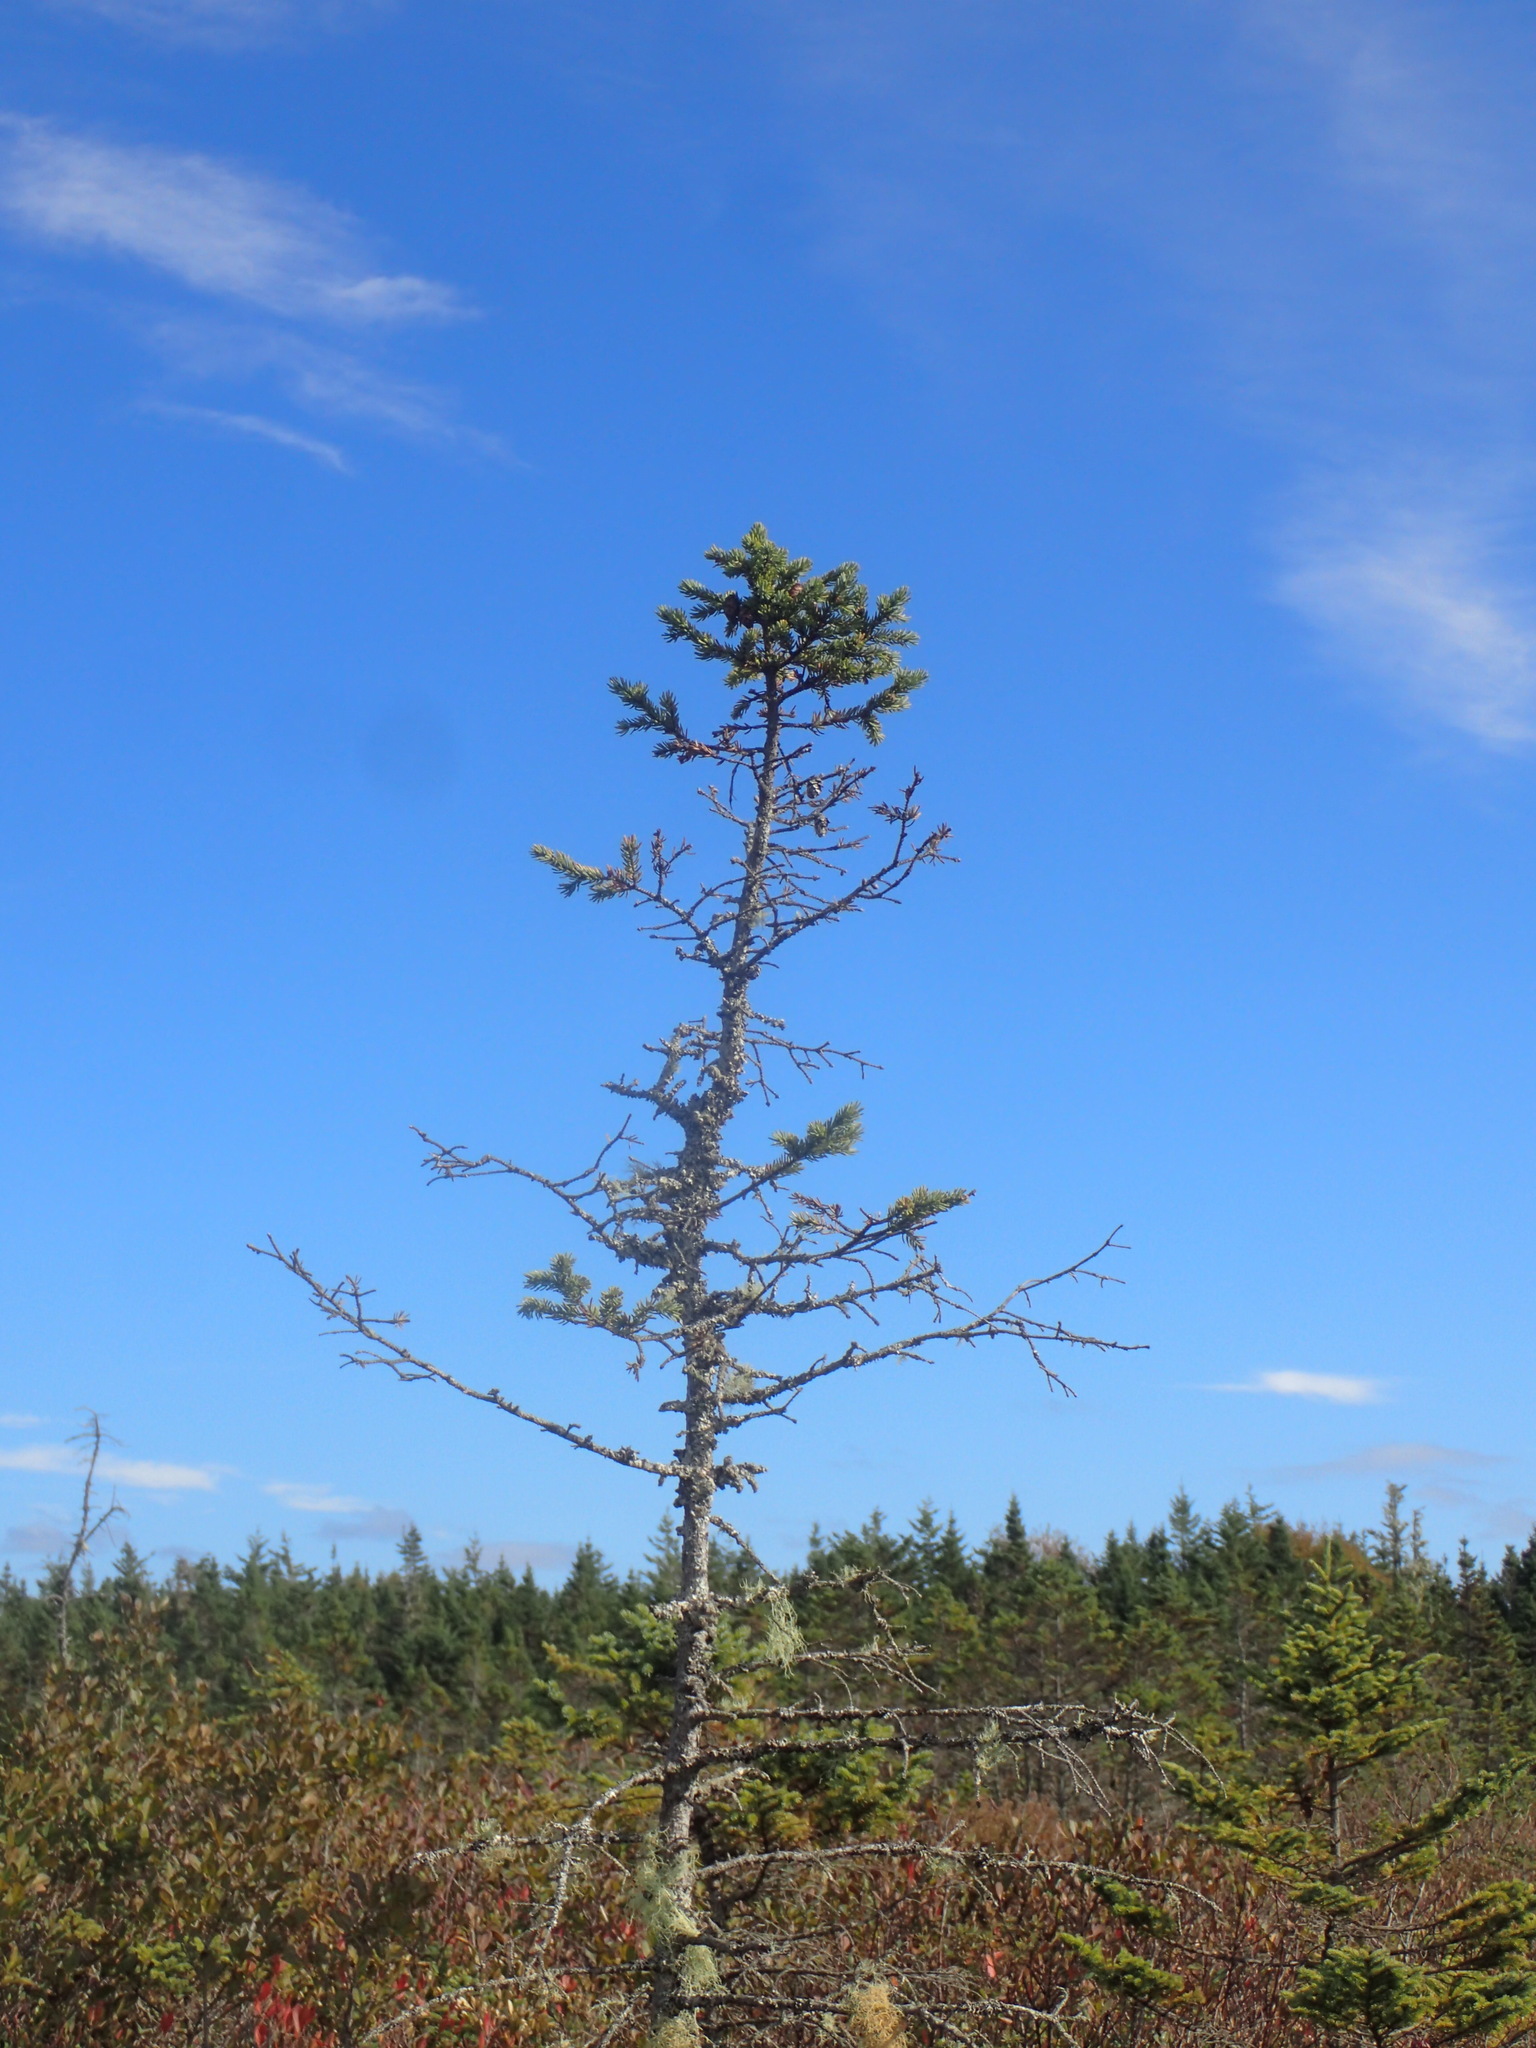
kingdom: Plantae
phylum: Tracheophyta
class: Pinopsida
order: Pinales
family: Pinaceae
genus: Picea
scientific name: Picea mariana
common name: Black spruce
